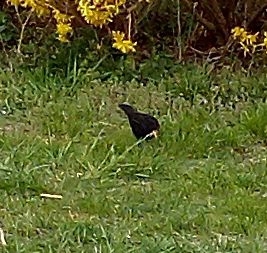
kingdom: Animalia
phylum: Chordata
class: Aves
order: Passeriformes
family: Turdidae
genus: Turdus
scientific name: Turdus merula
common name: Common blackbird
